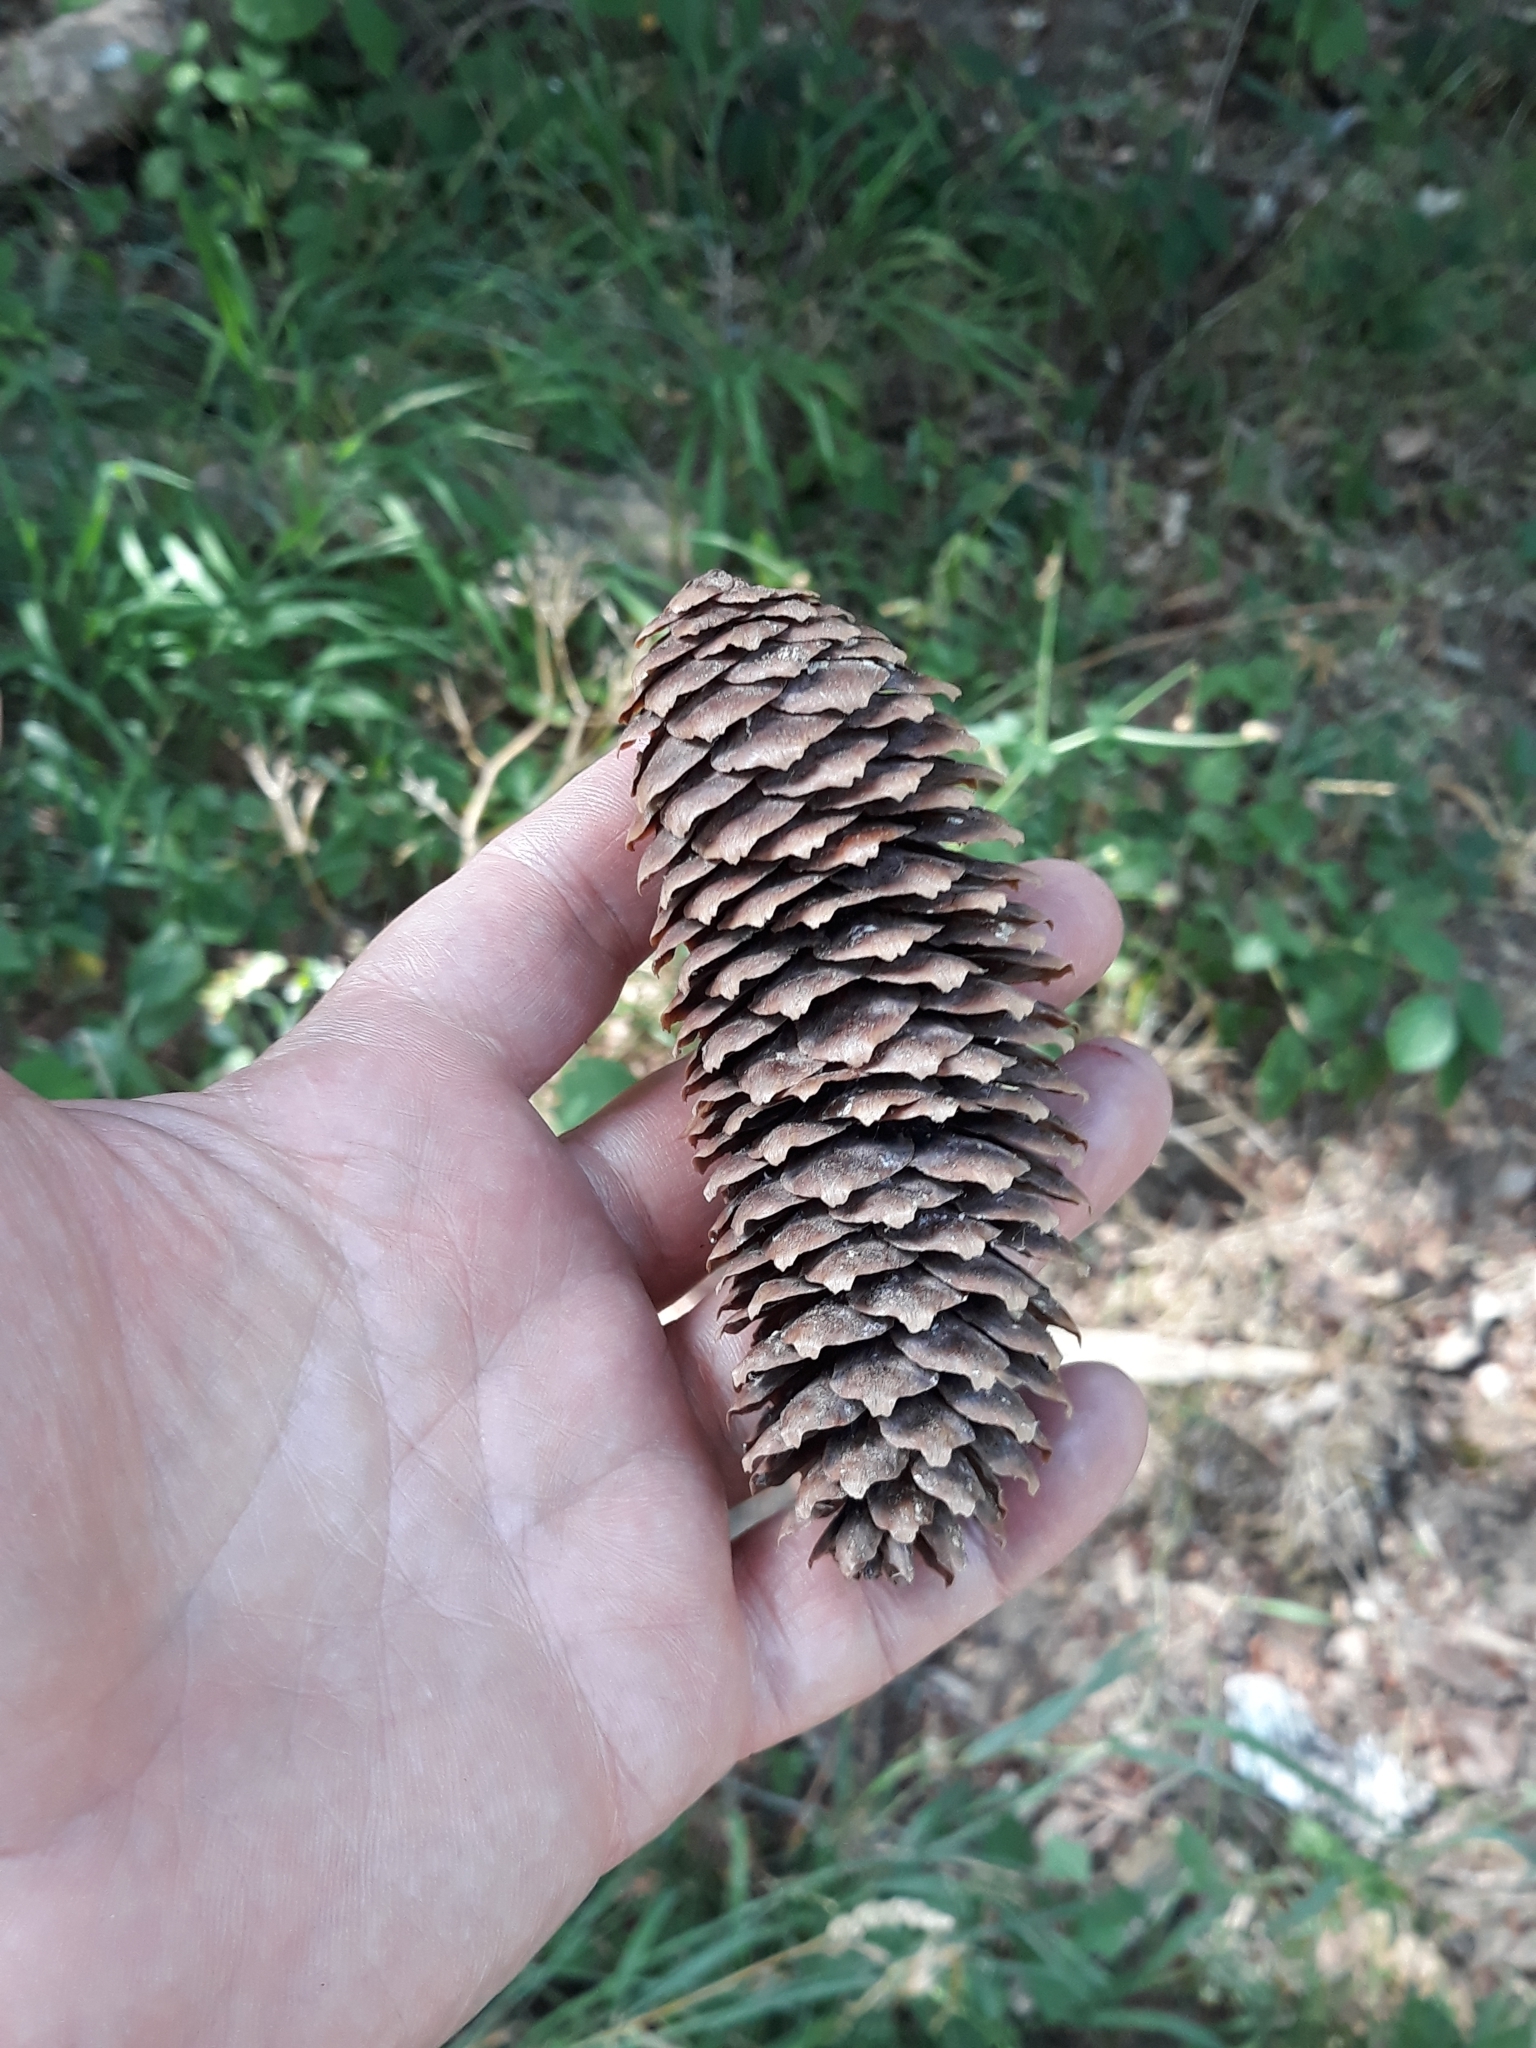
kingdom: Plantae
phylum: Tracheophyta
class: Pinopsida
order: Pinales
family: Pinaceae
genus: Picea
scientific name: Picea abies
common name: Norway spruce
